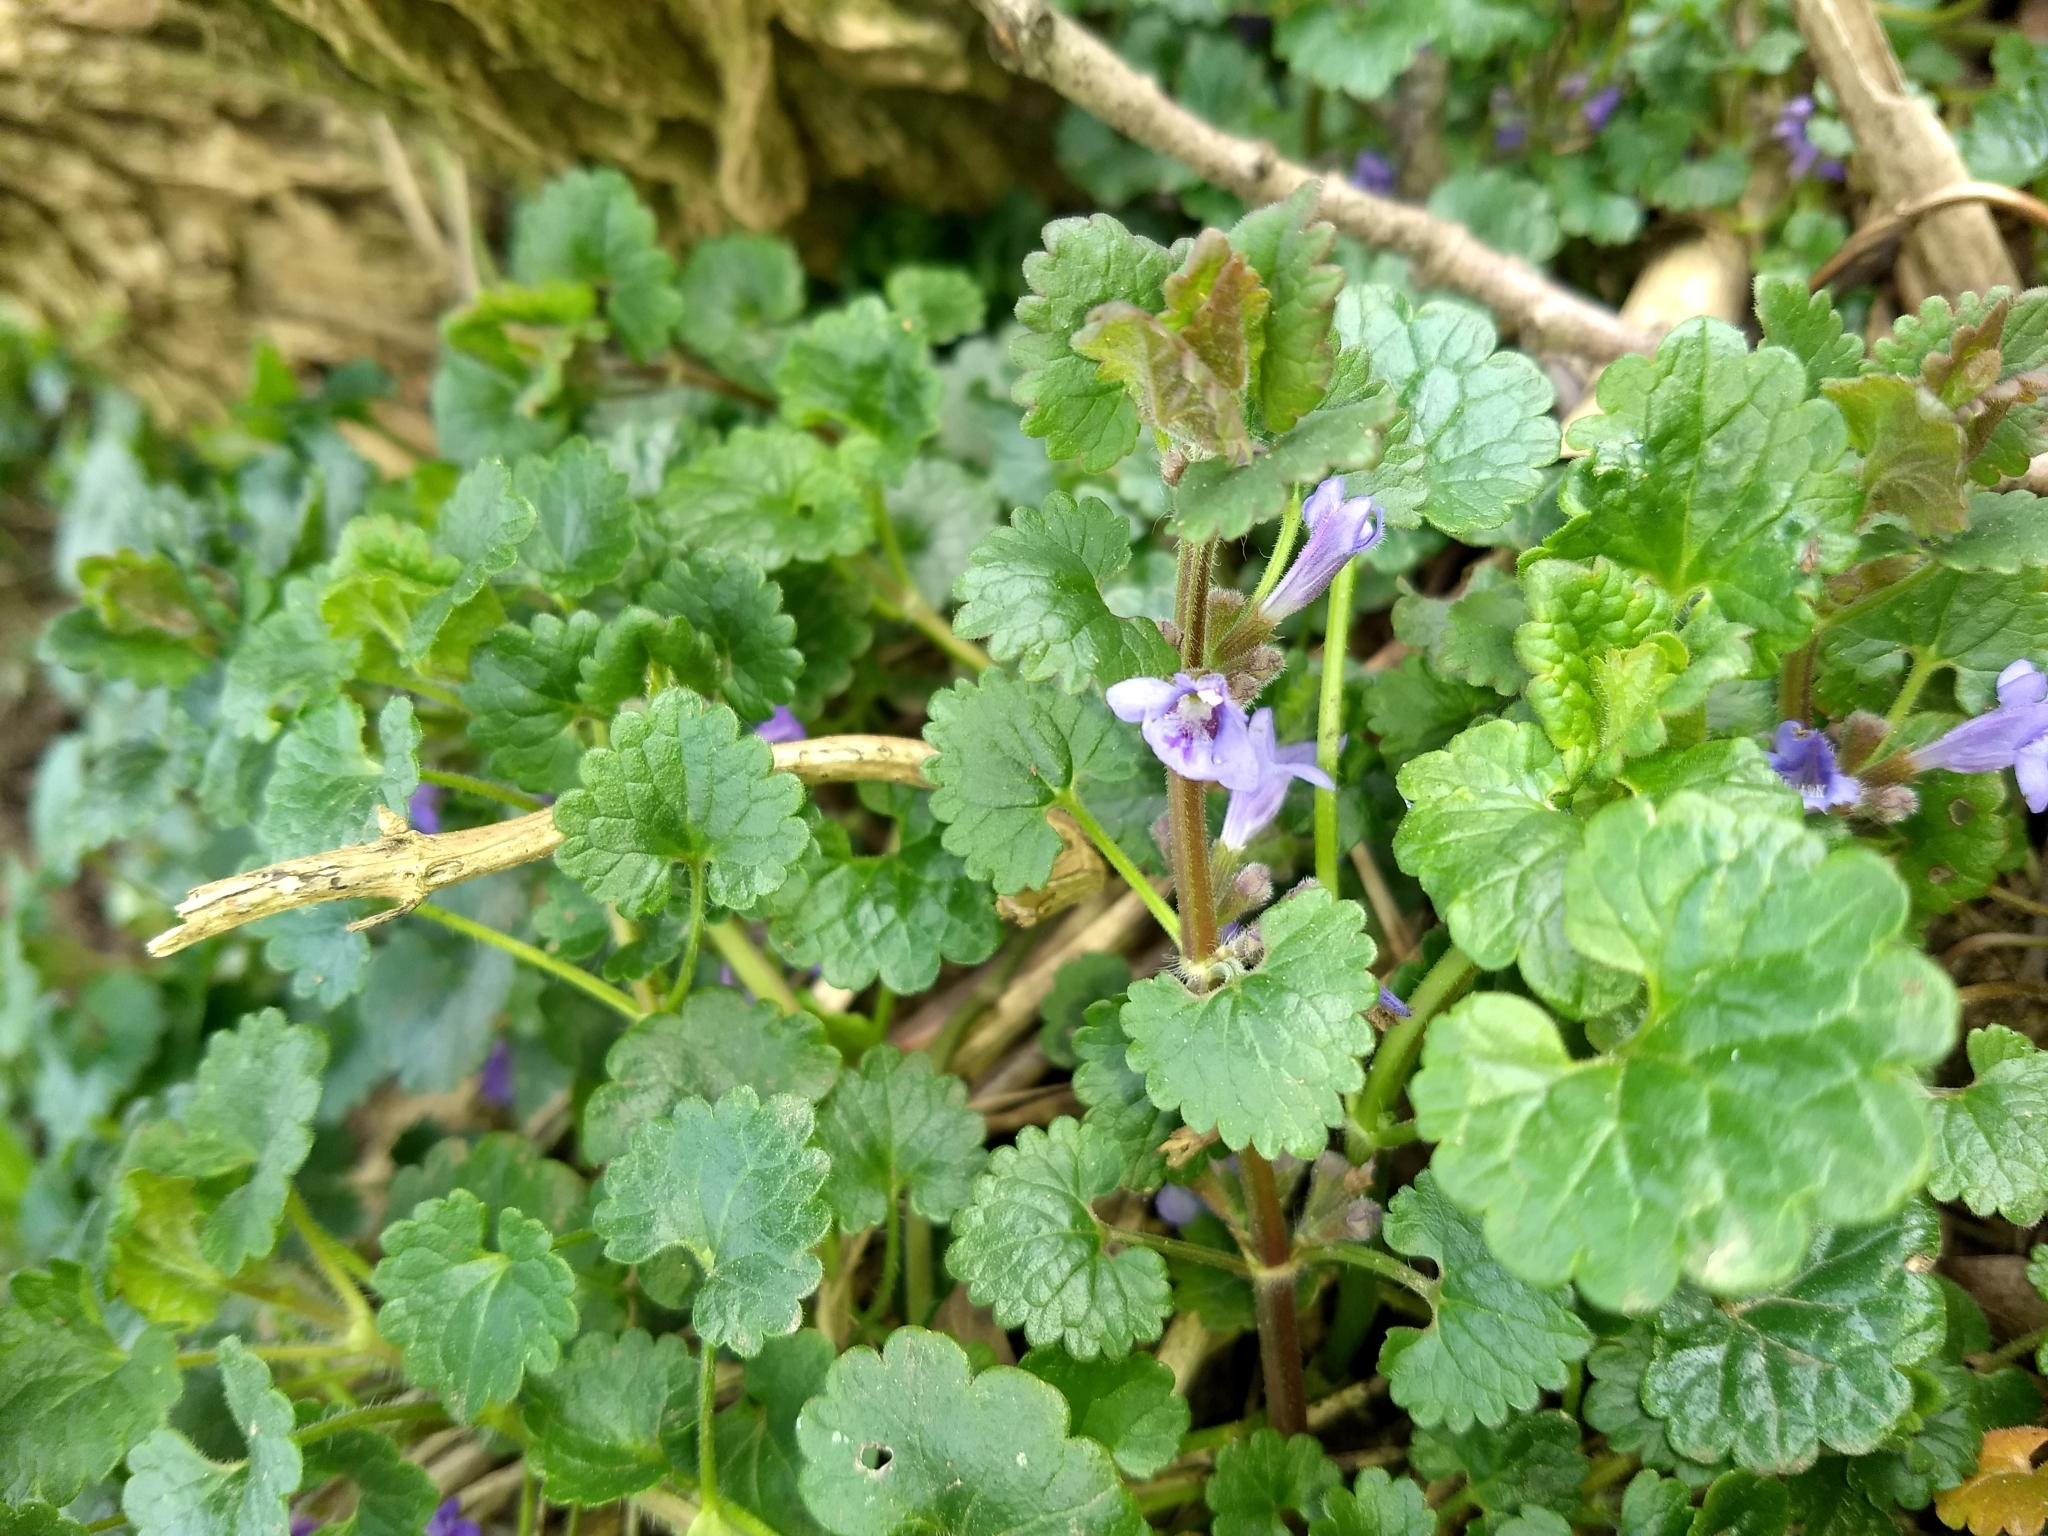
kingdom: Plantae
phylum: Tracheophyta
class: Magnoliopsida
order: Lamiales
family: Lamiaceae
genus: Glechoma
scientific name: Glechoma hederacea
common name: Ground ivy
